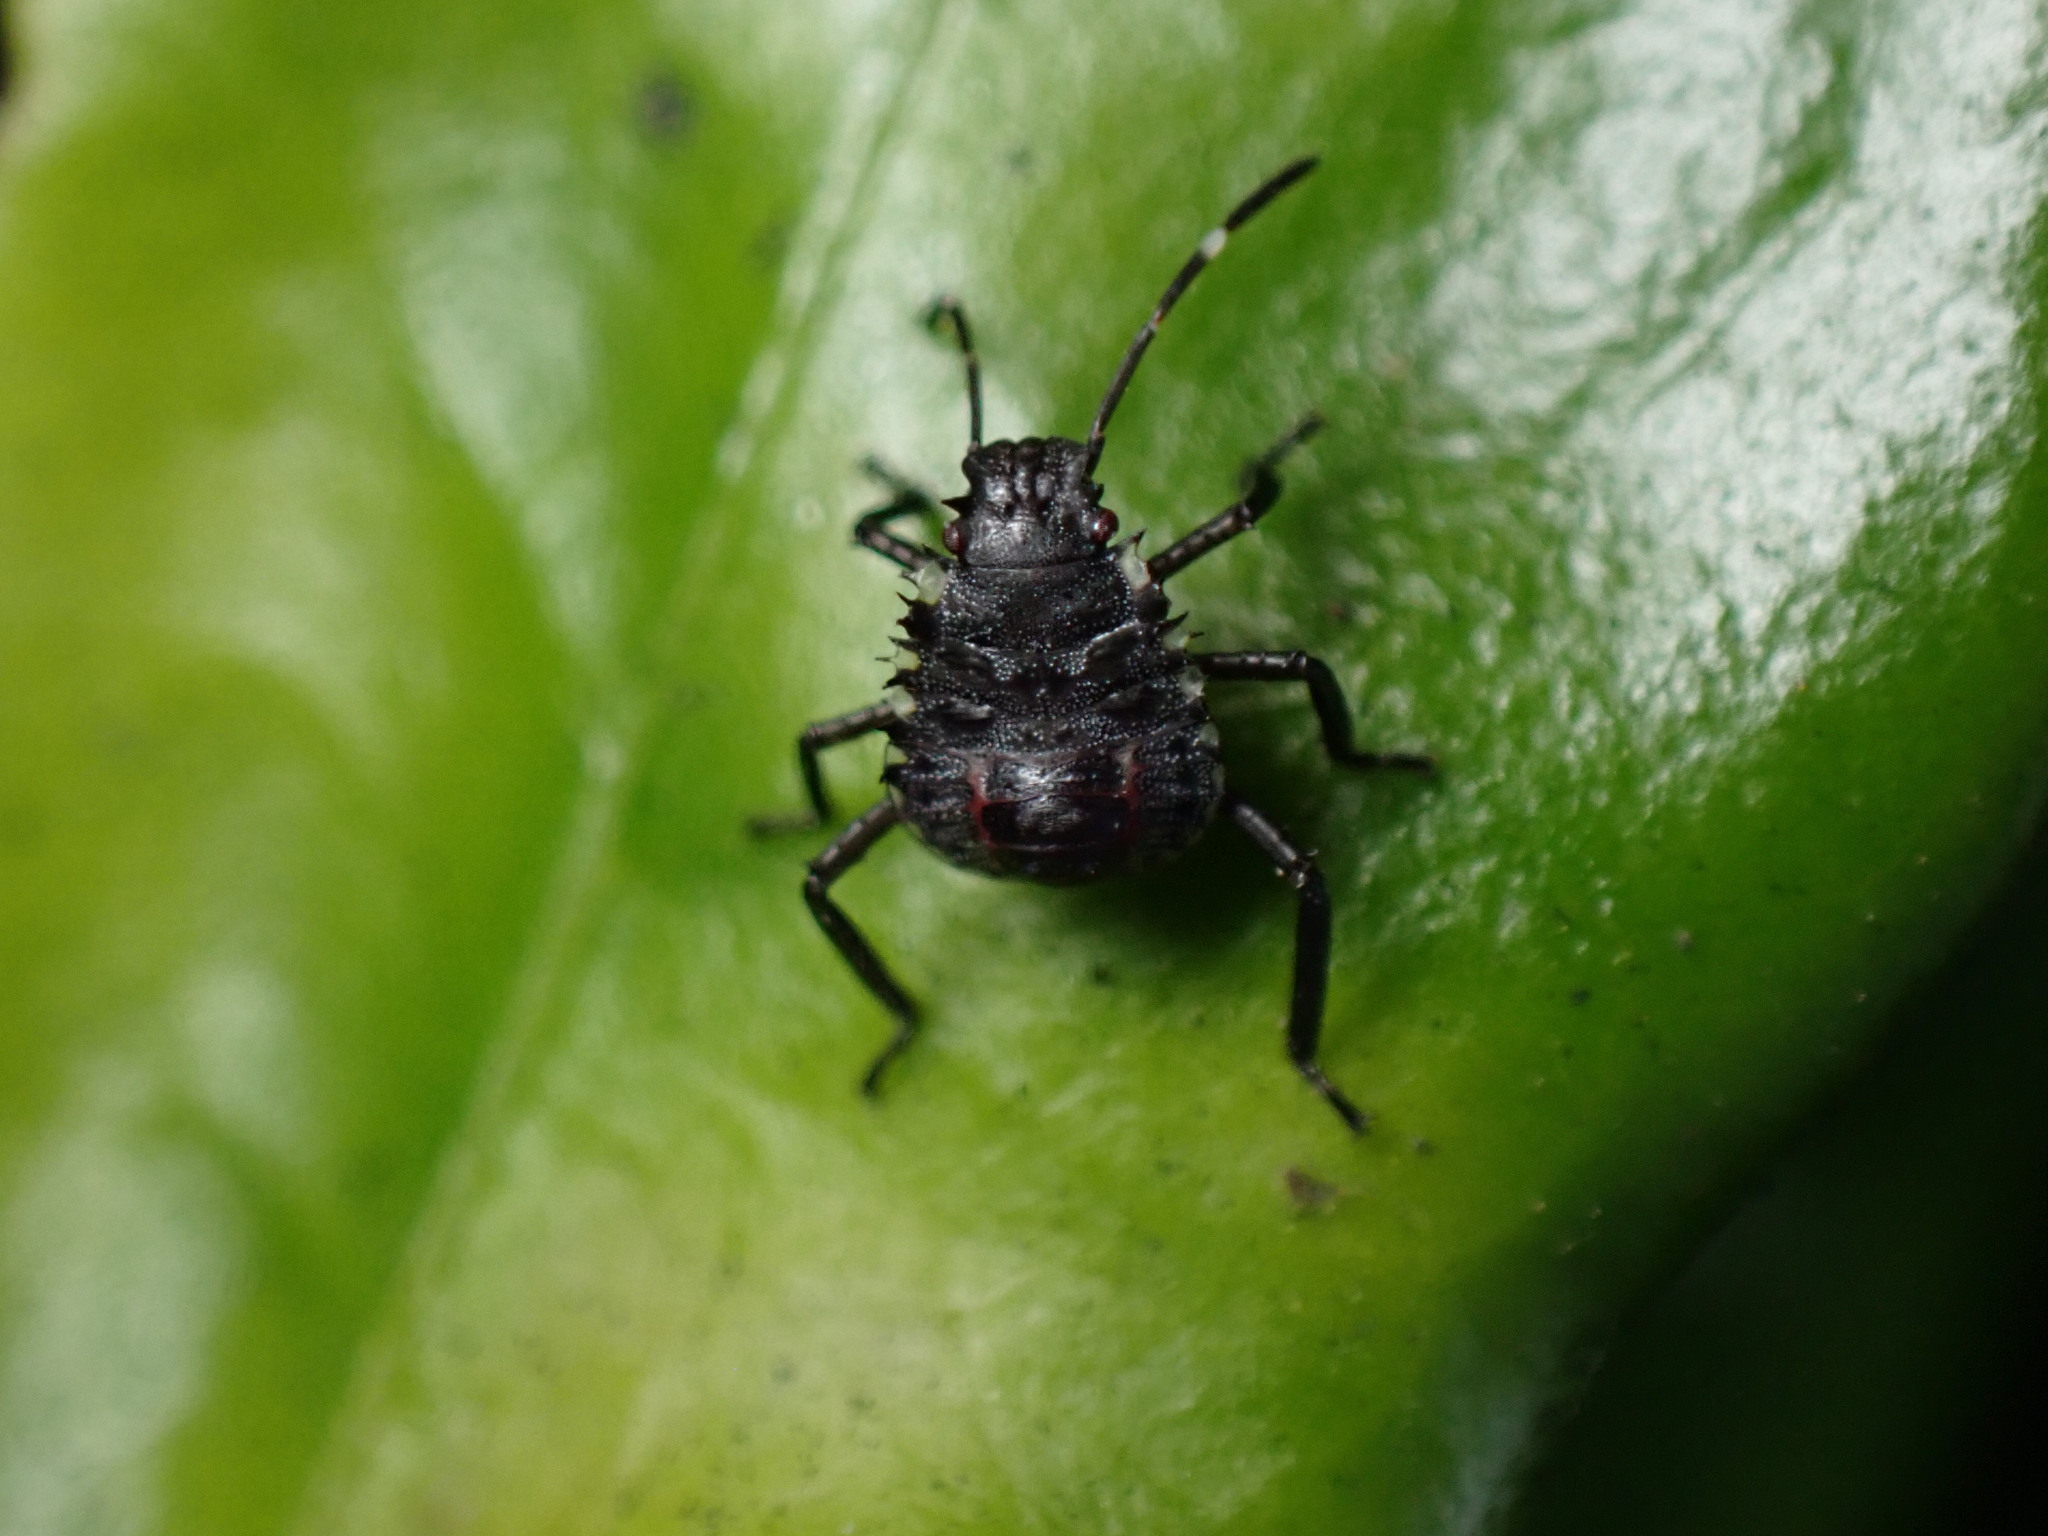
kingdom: Animalia
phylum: Arthropoda
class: Insecta
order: Hemiptera
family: Pentatomidae
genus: Halyomorpha
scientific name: Halyomorpha halys
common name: Brown marmorated stink bug
